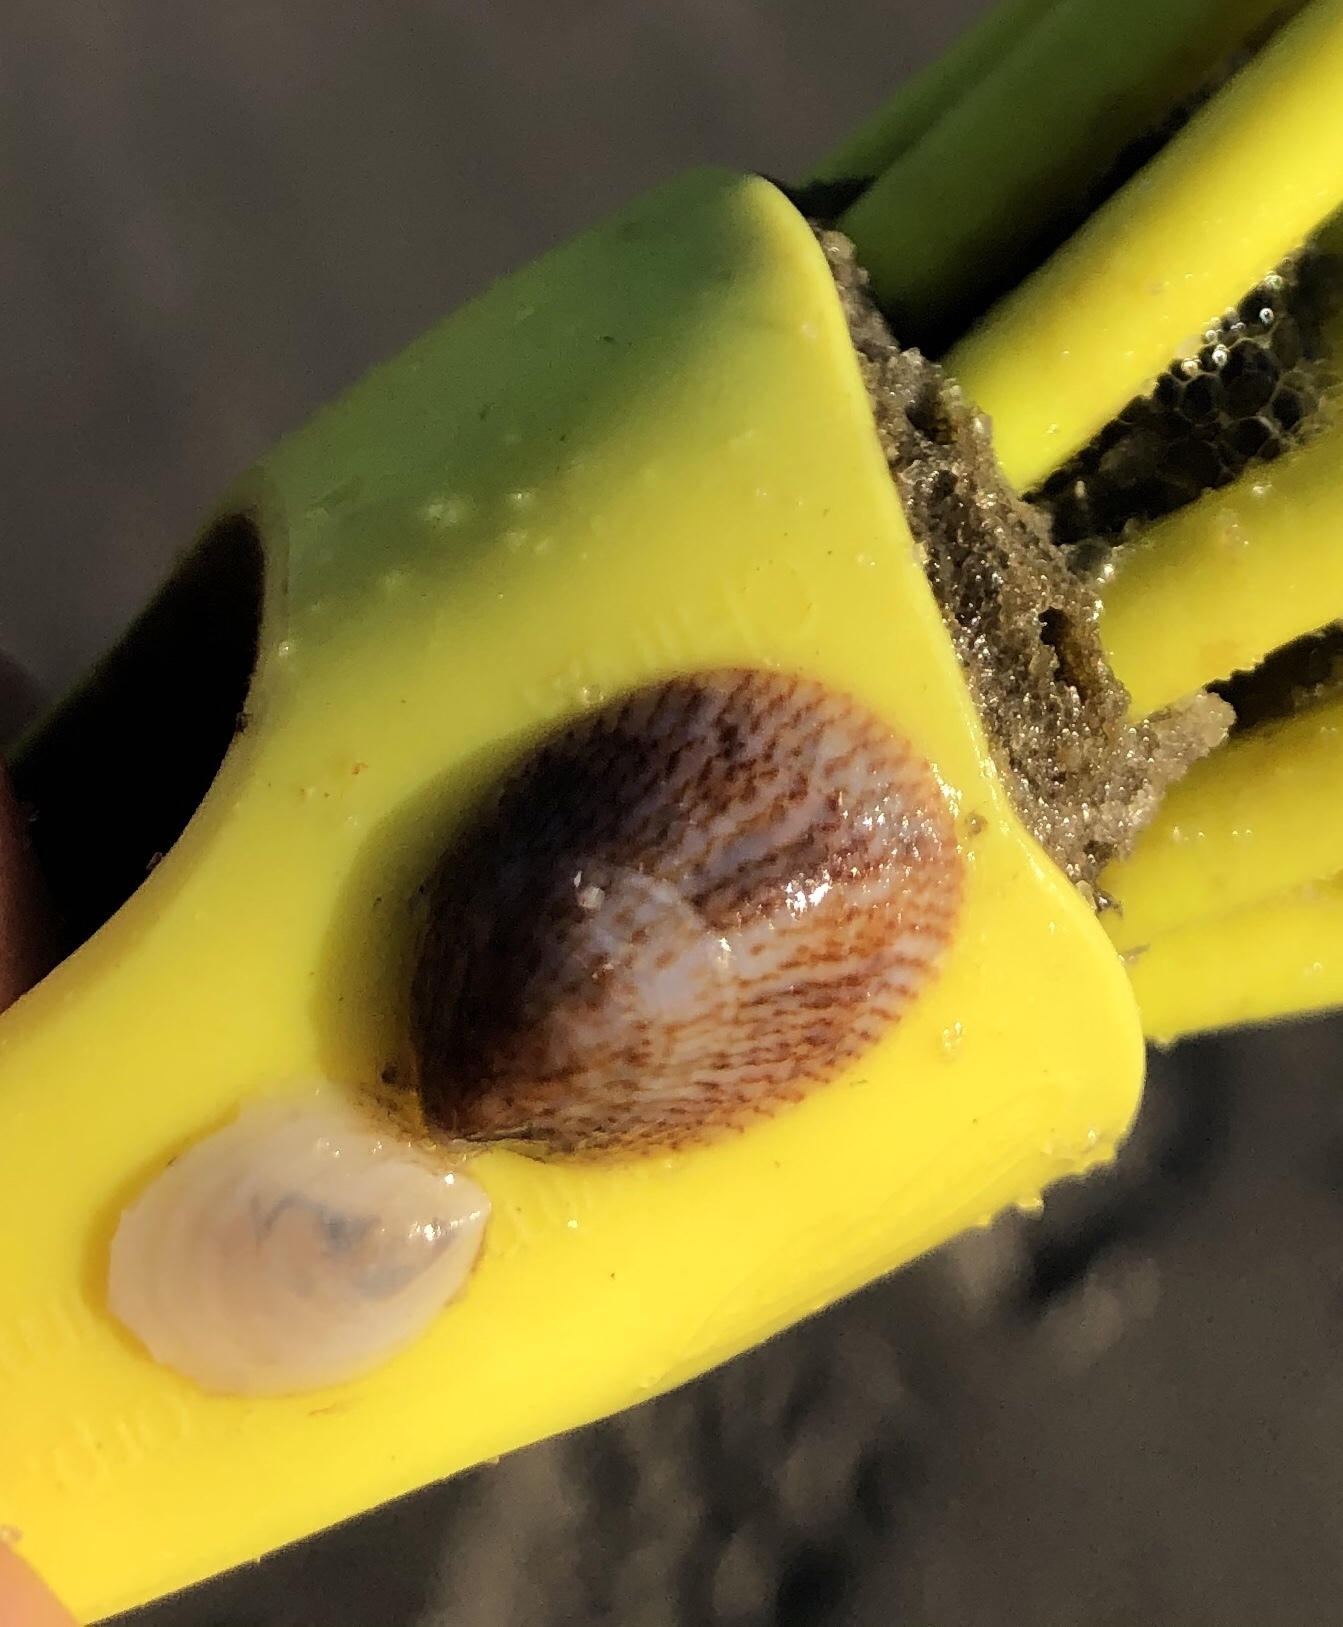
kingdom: Animalia
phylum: Mollusca
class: Gastropoda
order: Littorinimorpha
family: Calyptraeidae
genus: Crepidula
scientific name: Crepidula fornicata
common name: Slipper limpet
